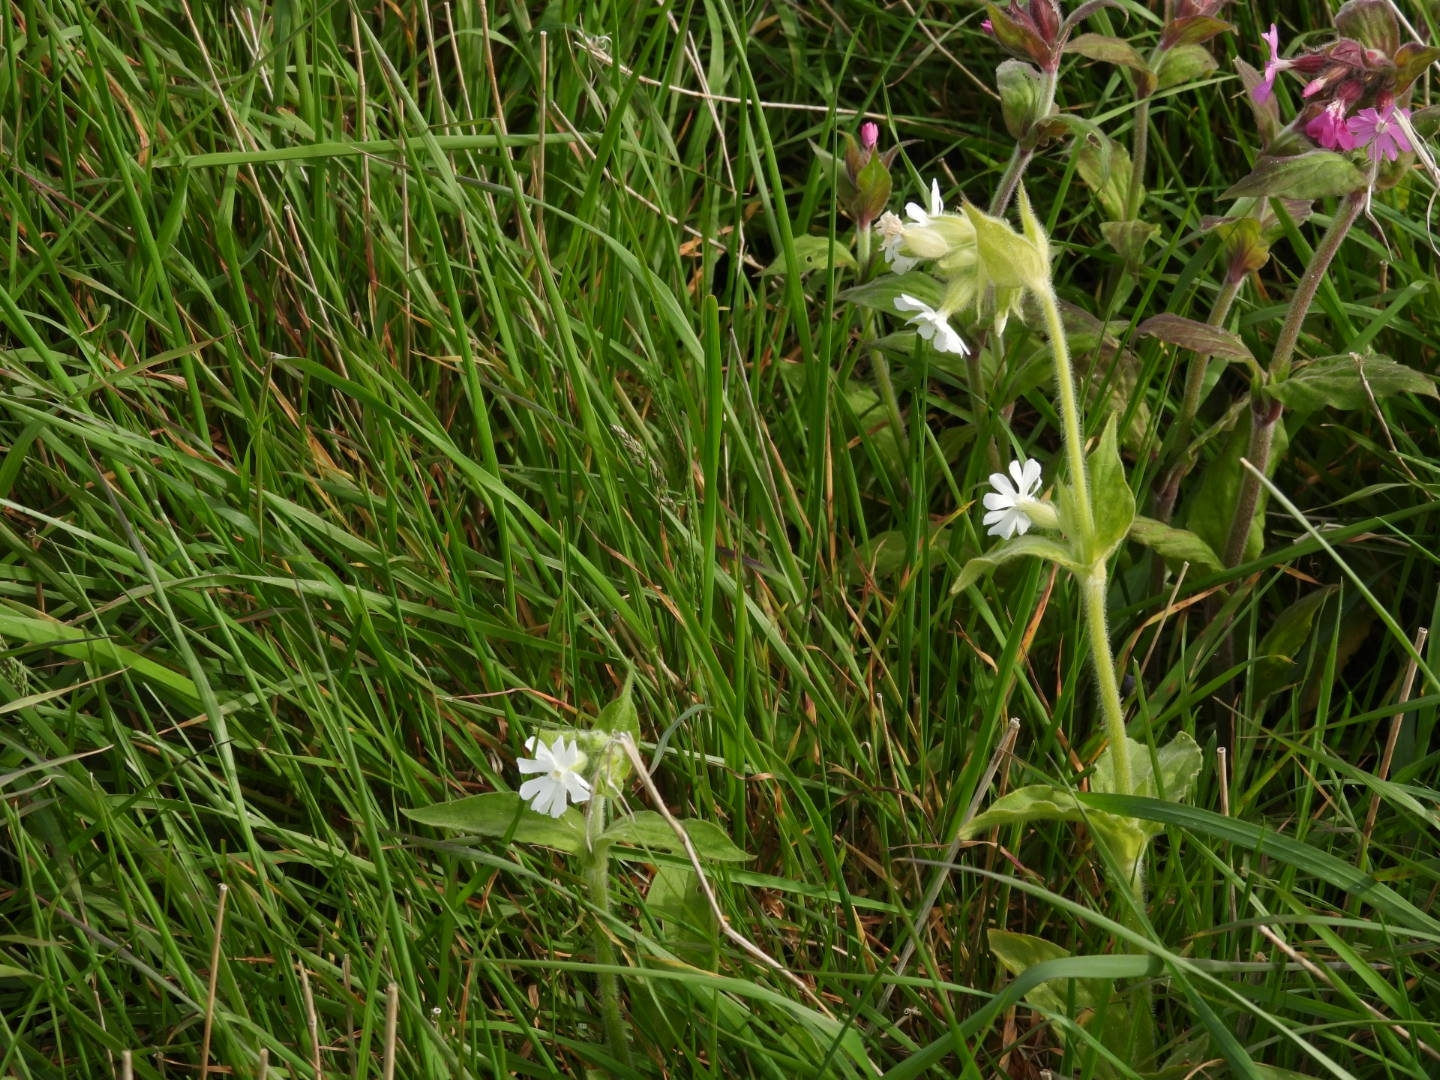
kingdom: Plantae
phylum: Tracheophyta
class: Magnoliopsida
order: Caryophyllales
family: Caryophyllaceae
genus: Silene
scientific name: Silene latifolia
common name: White campion
